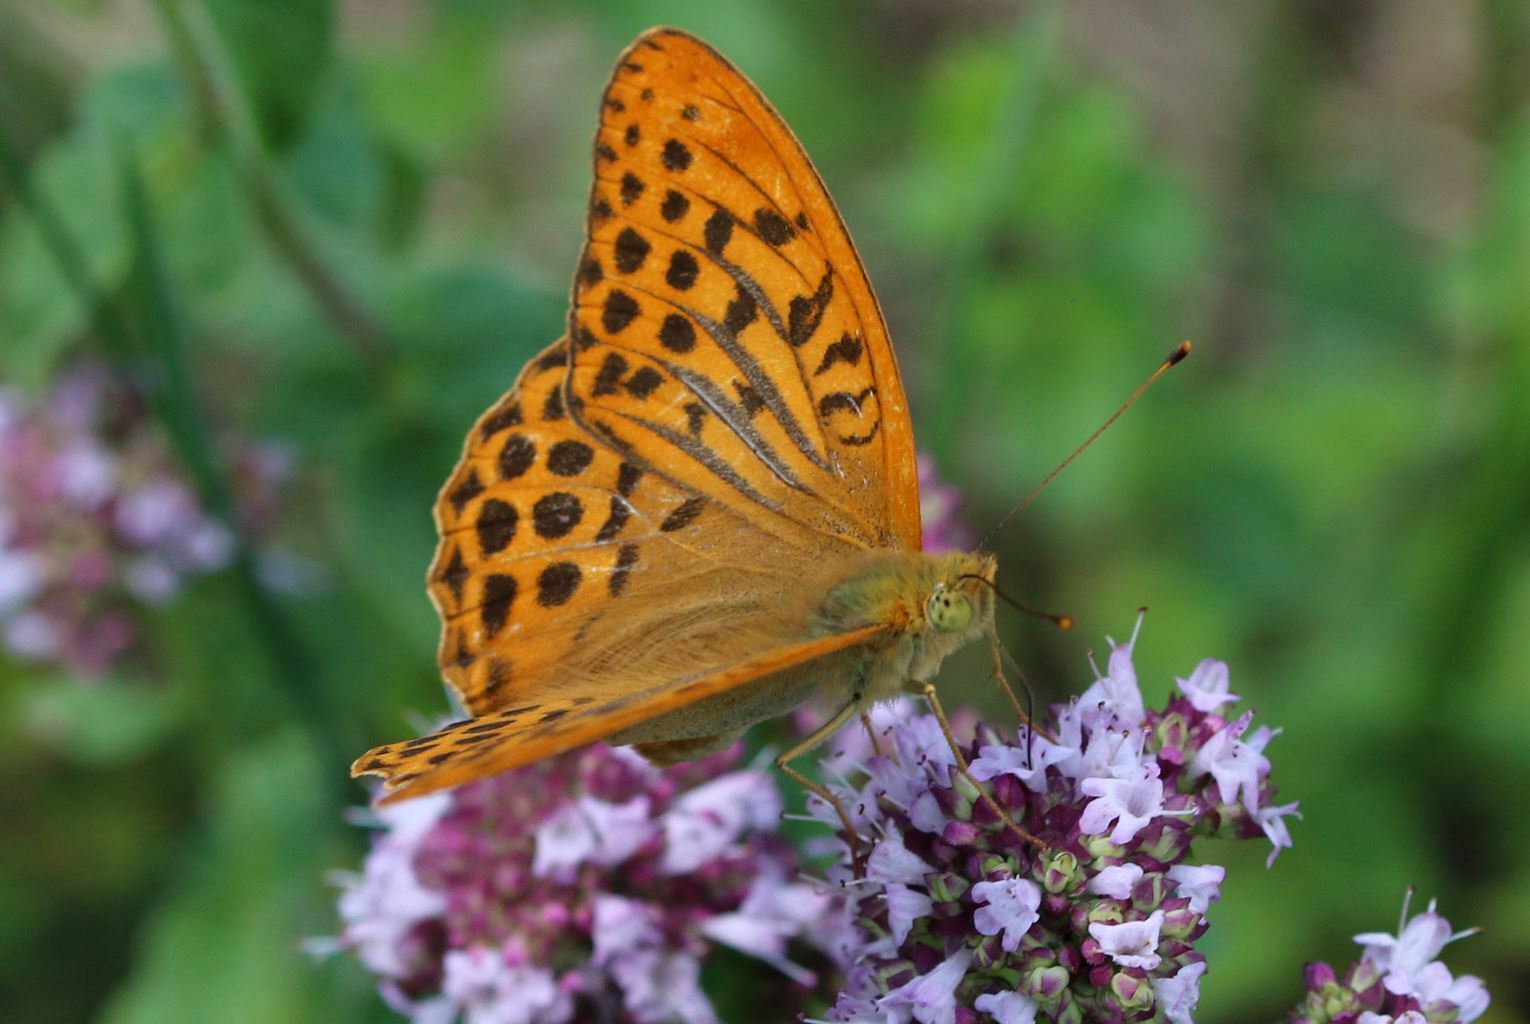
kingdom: Animalia
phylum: Arthropoda
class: Insecta
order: Lepidoptera
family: Nymphalidae
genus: Argynnis
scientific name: Argynnis paphia
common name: Silver-washed fritillary
